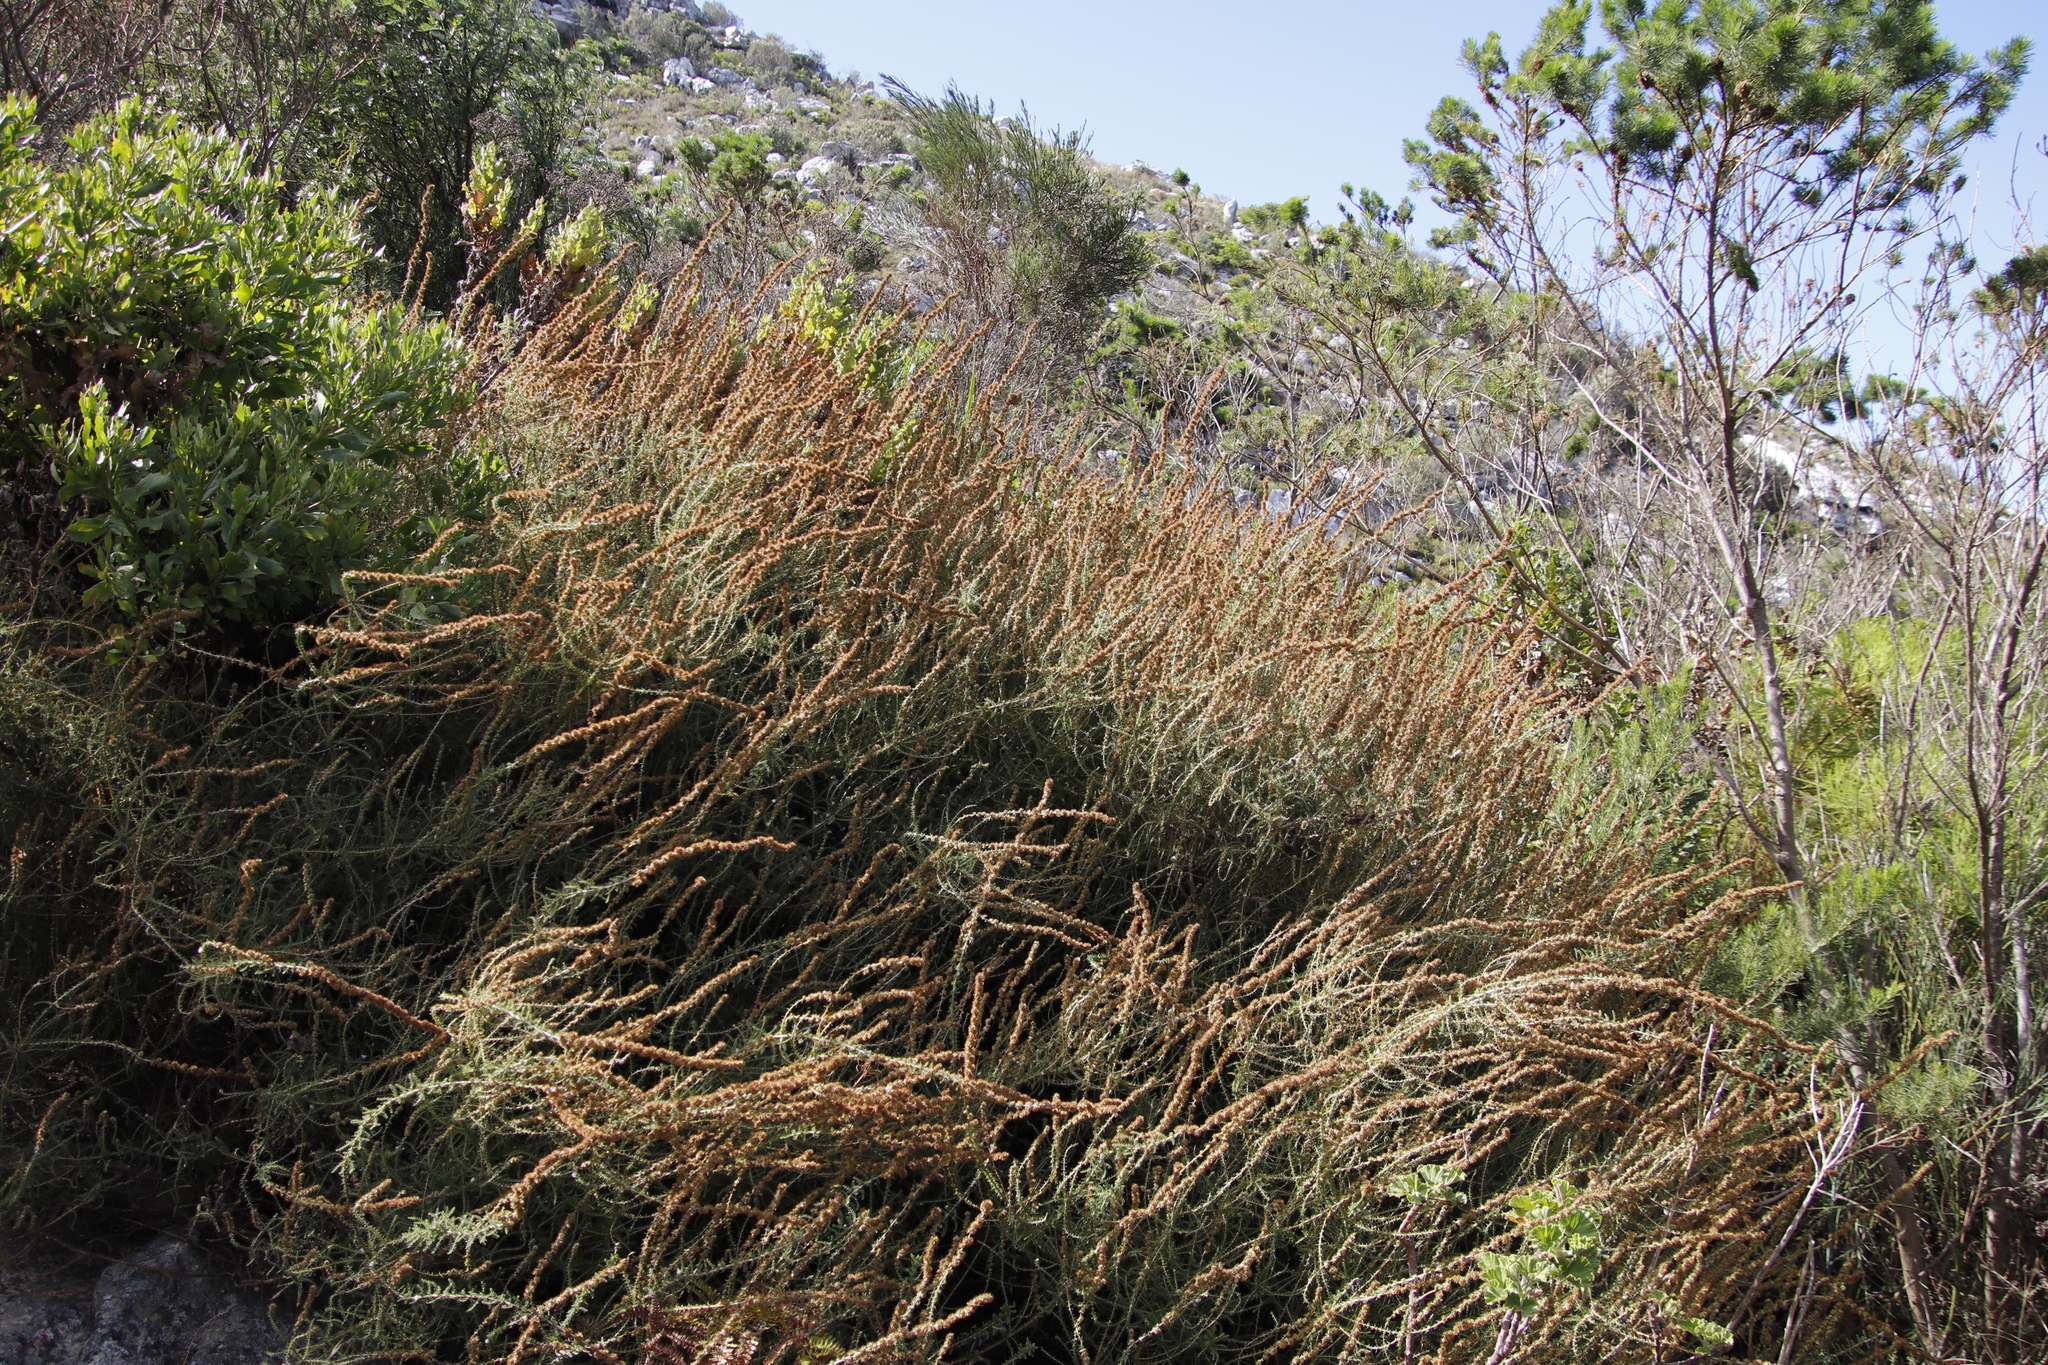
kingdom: Plantae
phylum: Tracheophyta
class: Magnoliopsida
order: Asterales
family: Asteraceae
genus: Seriphium
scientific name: Seriphium cinereum
